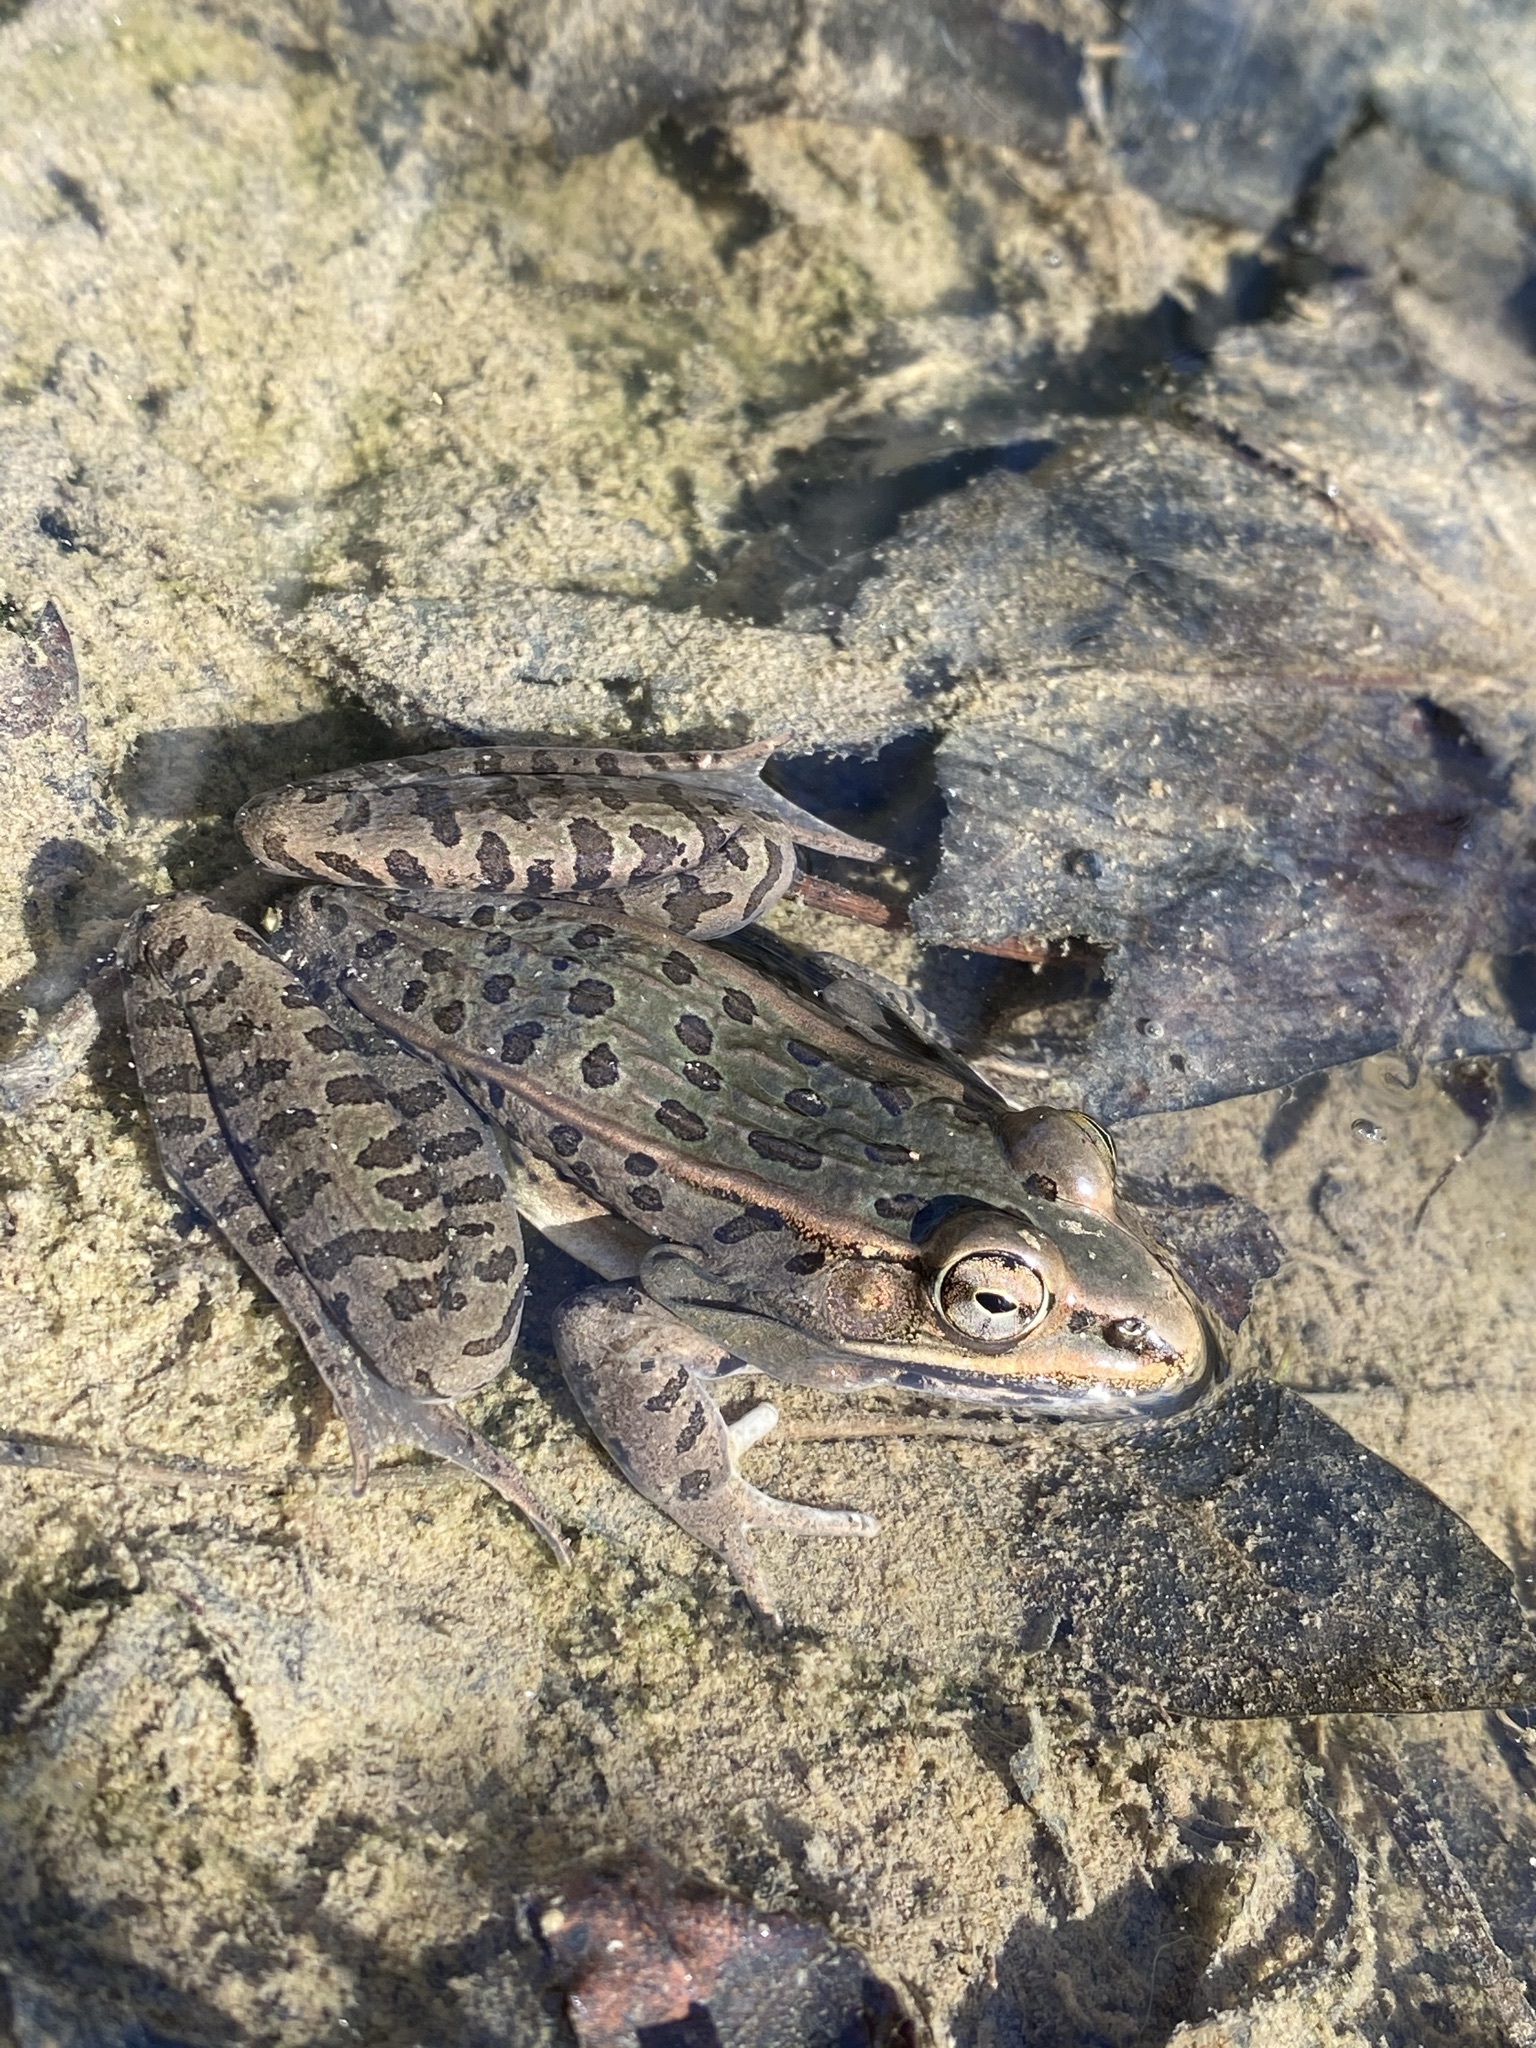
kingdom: Animalia
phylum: Chordata
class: Amphibia
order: Anura
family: Ranidae
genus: Lithobates
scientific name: Lithobates sphenocephalus
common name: Southern leopard frog
